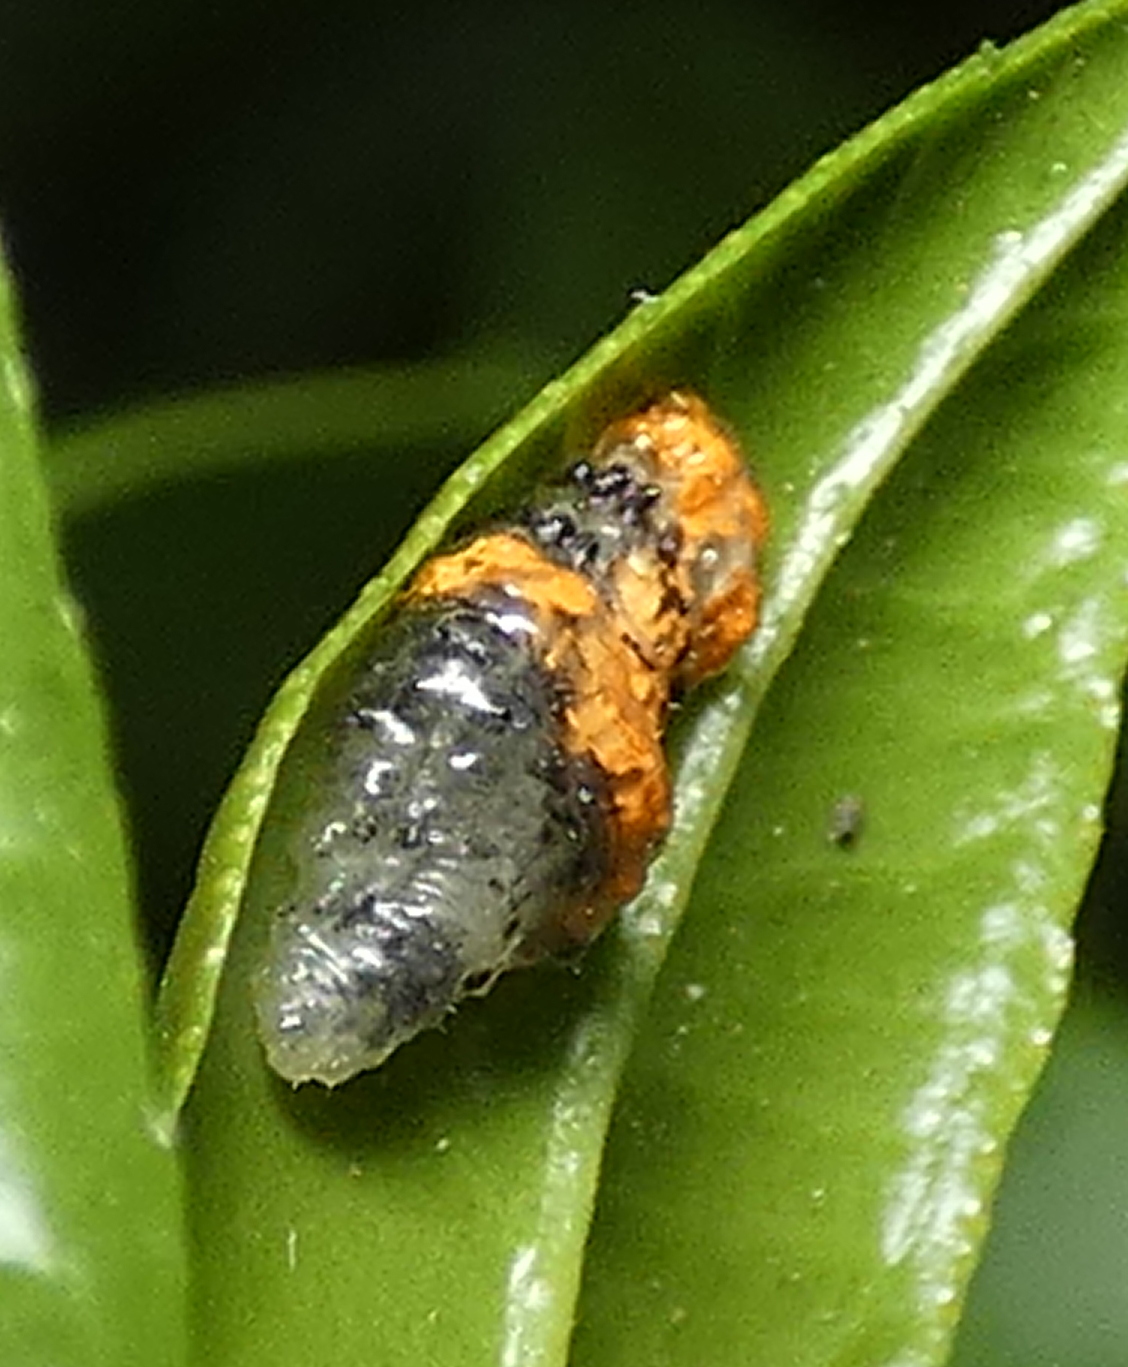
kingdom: Animalia
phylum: Arthropoda
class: Insecta
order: Diptera
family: Syrphidae
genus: Ocyptamus
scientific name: Ocyptamus gastrostactus
